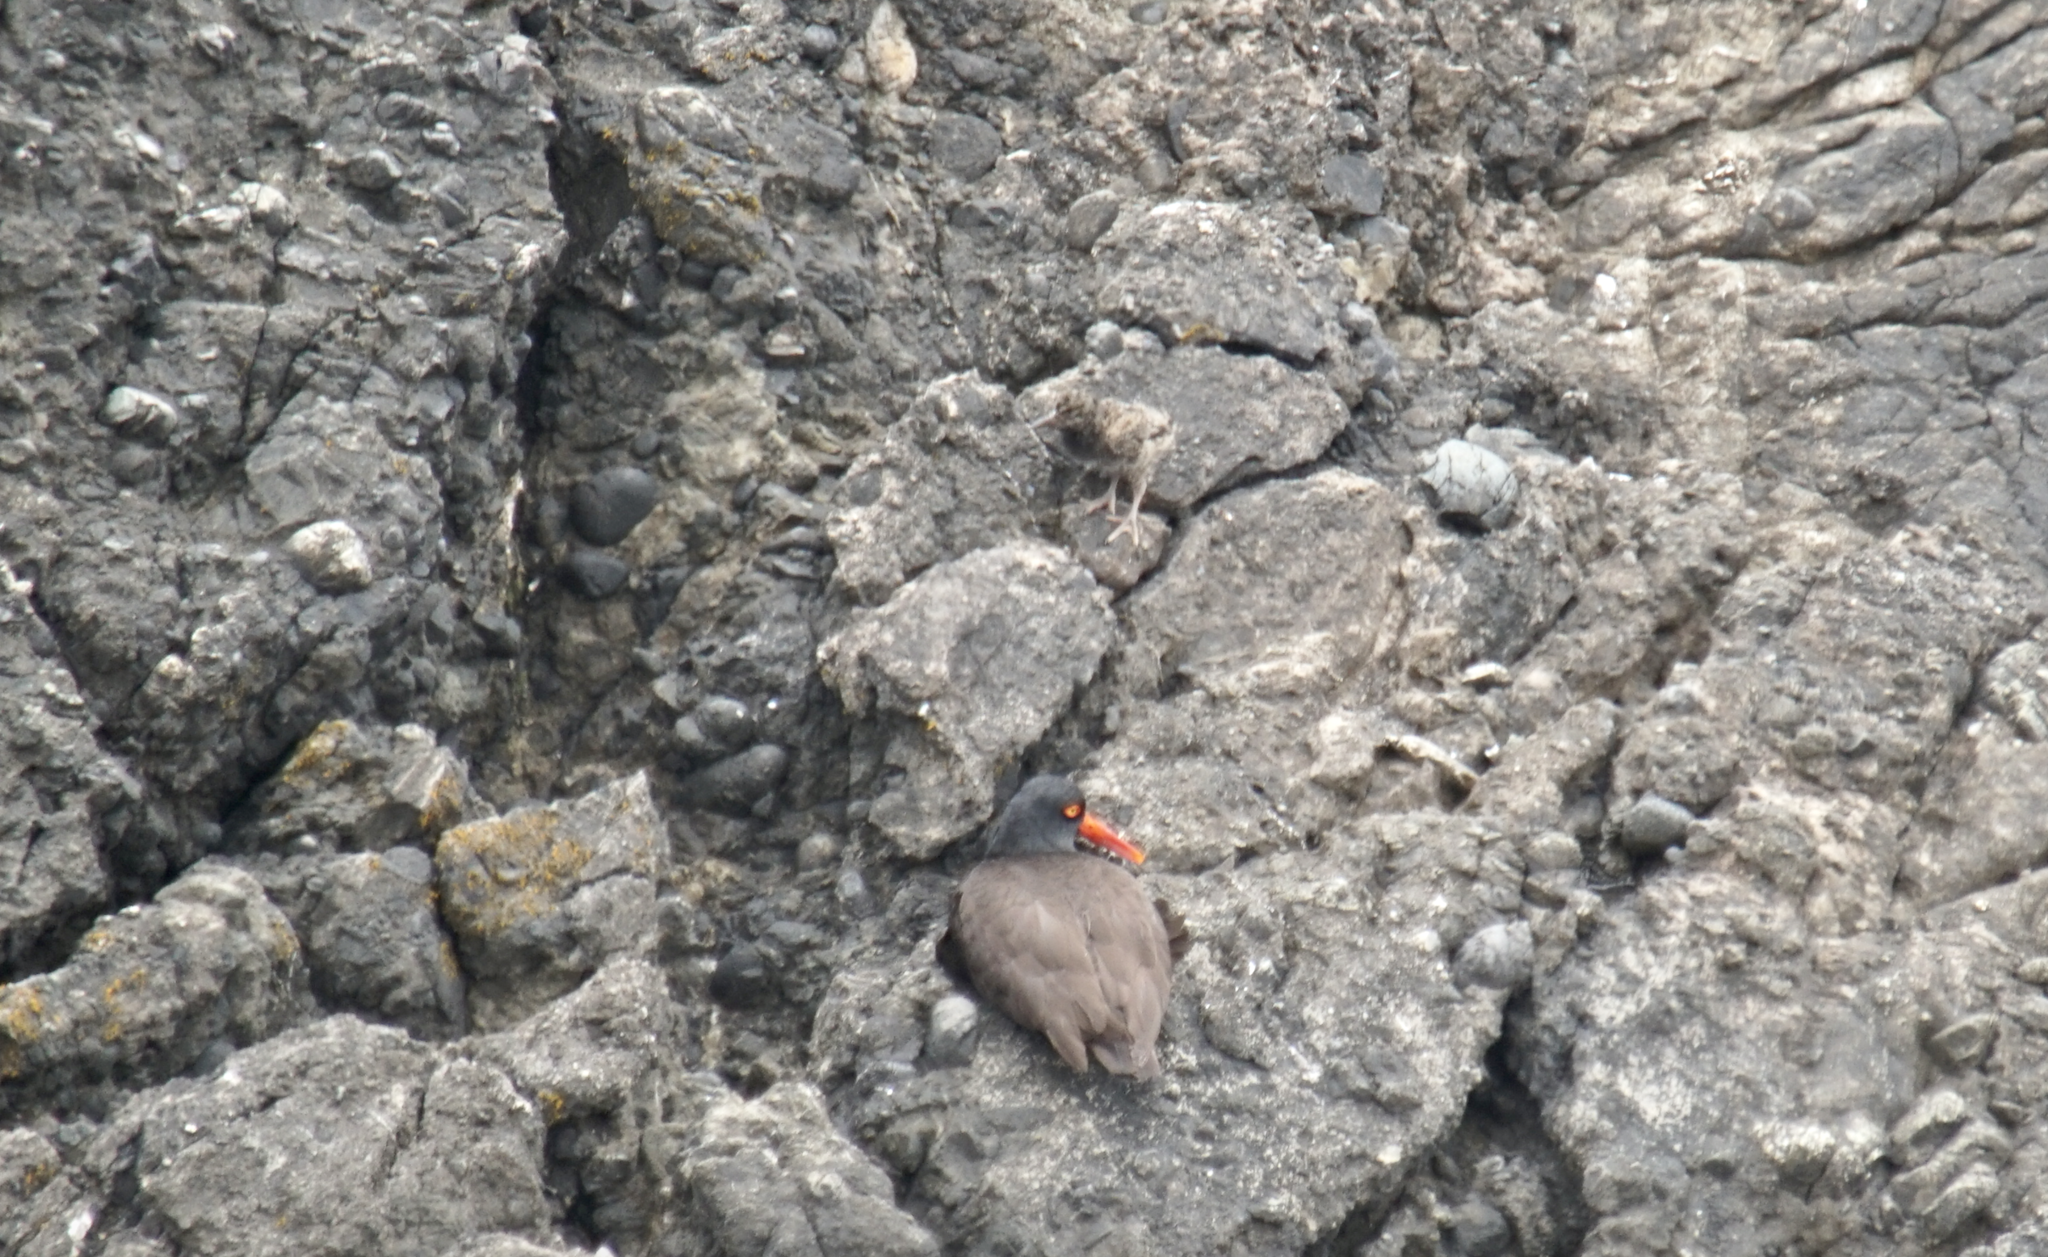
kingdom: Animalia
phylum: Chordata
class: Aves
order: Charadriiformes
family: Haematopodidae
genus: Haematopus
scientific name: Haematopus bachmani
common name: Black oystercatcher
